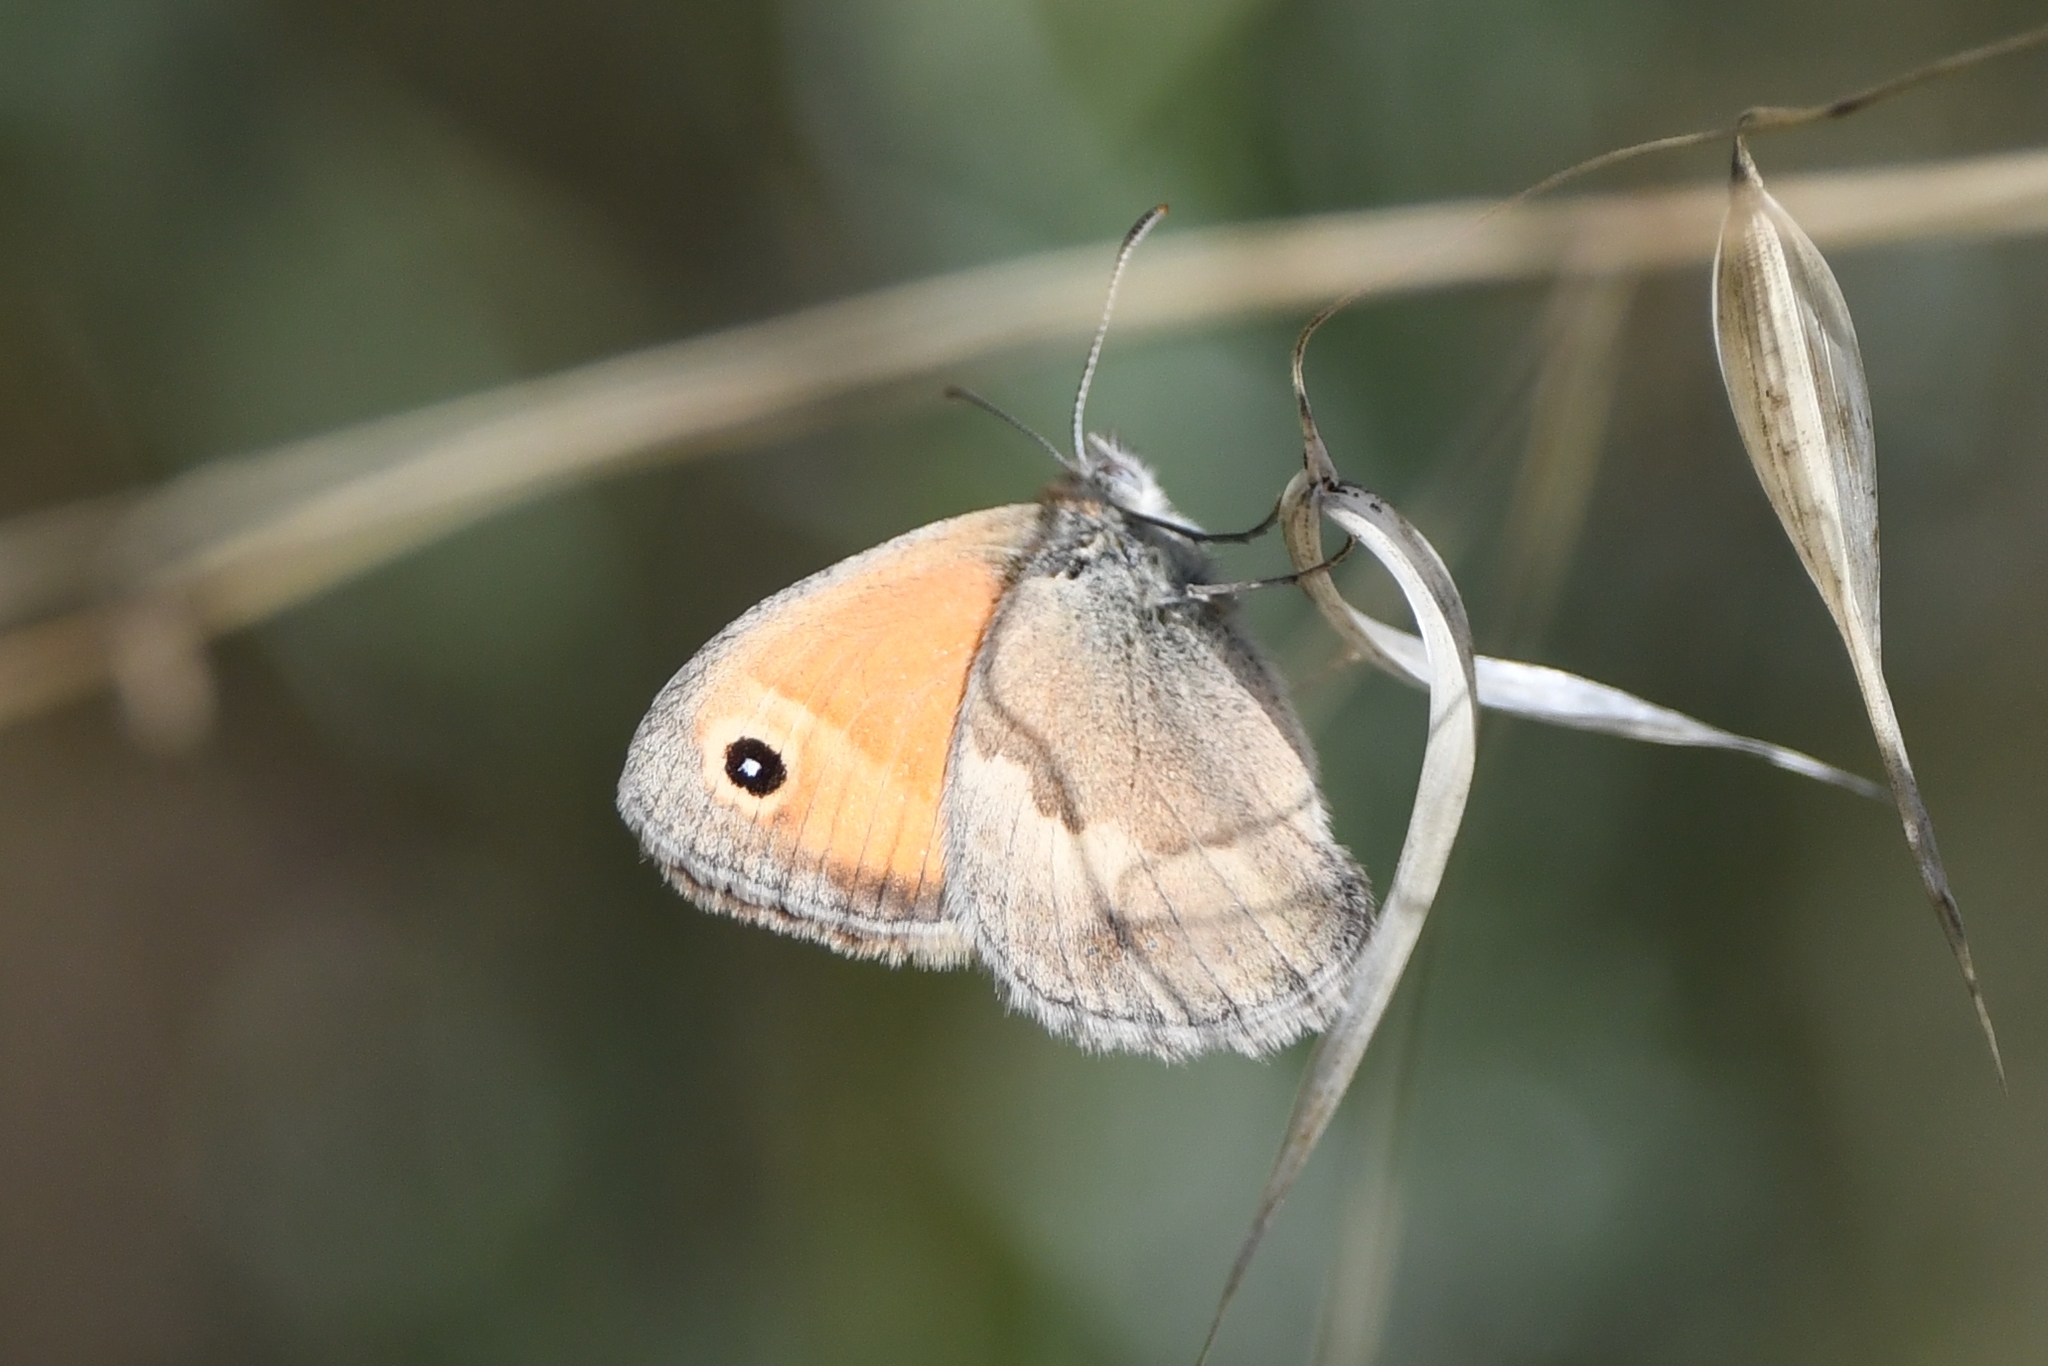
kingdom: Animalia
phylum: Arthropoda
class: Insecta
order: Lepidoptera
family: Nymphalidae
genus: Coenonympha
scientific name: Coenonympha pamphilus
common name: Small heath
